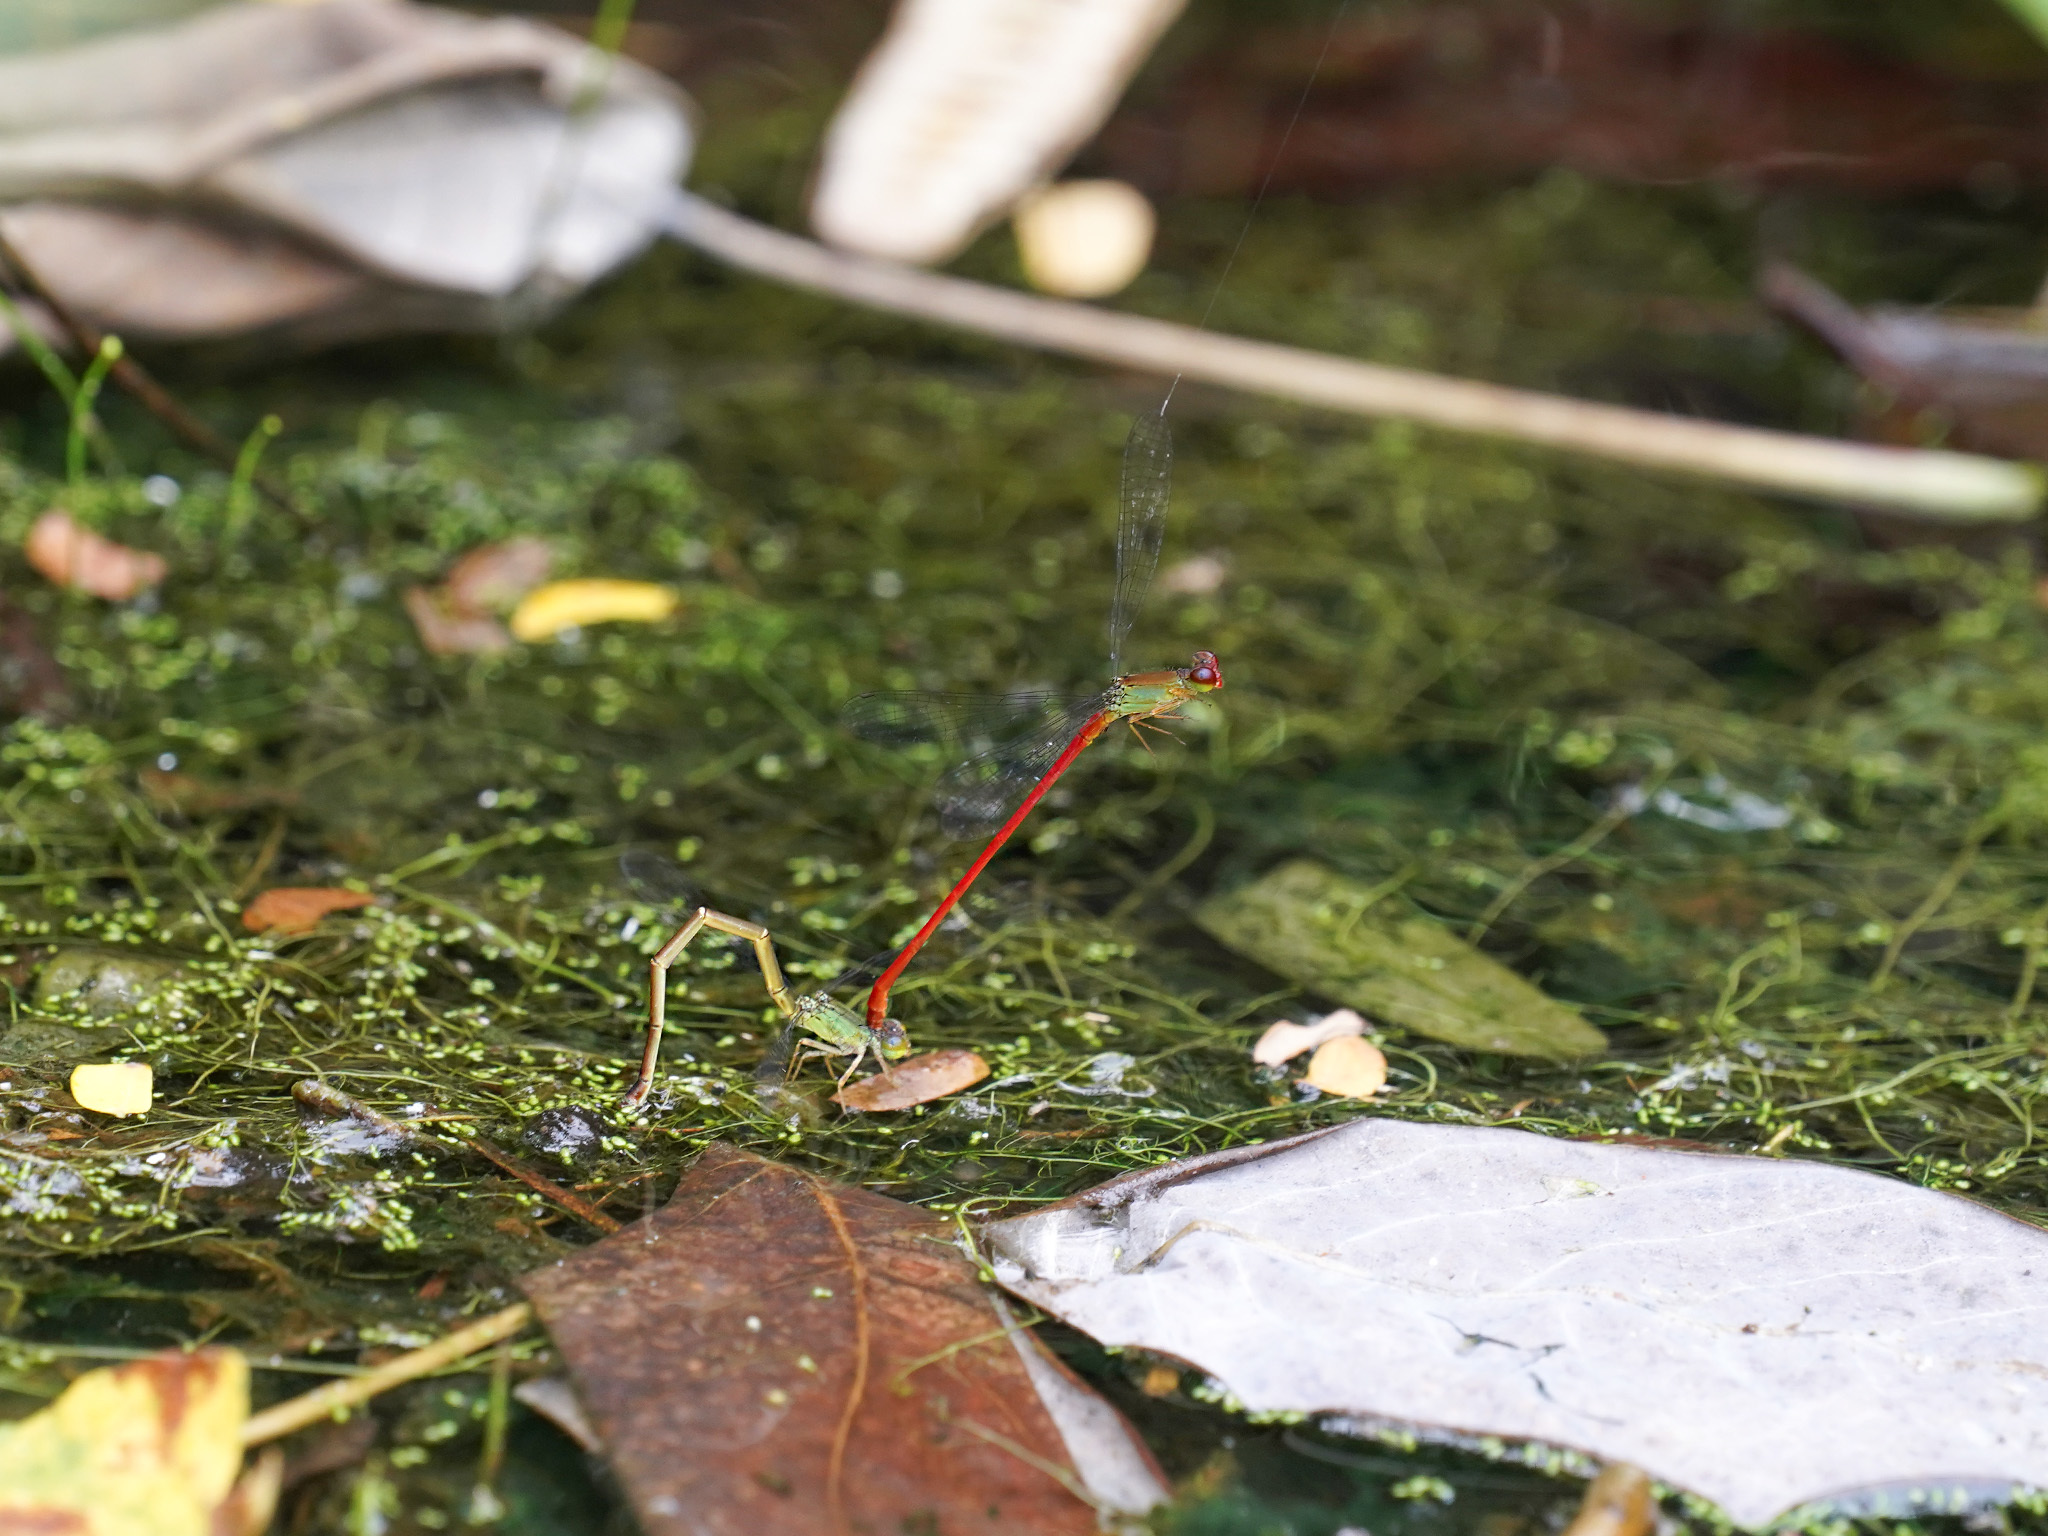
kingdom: Animalia
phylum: Arthropoda
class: Insecta
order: Odonata
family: Coenagrionidae
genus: Ceriagrion
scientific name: Ceriagrion chaoi
